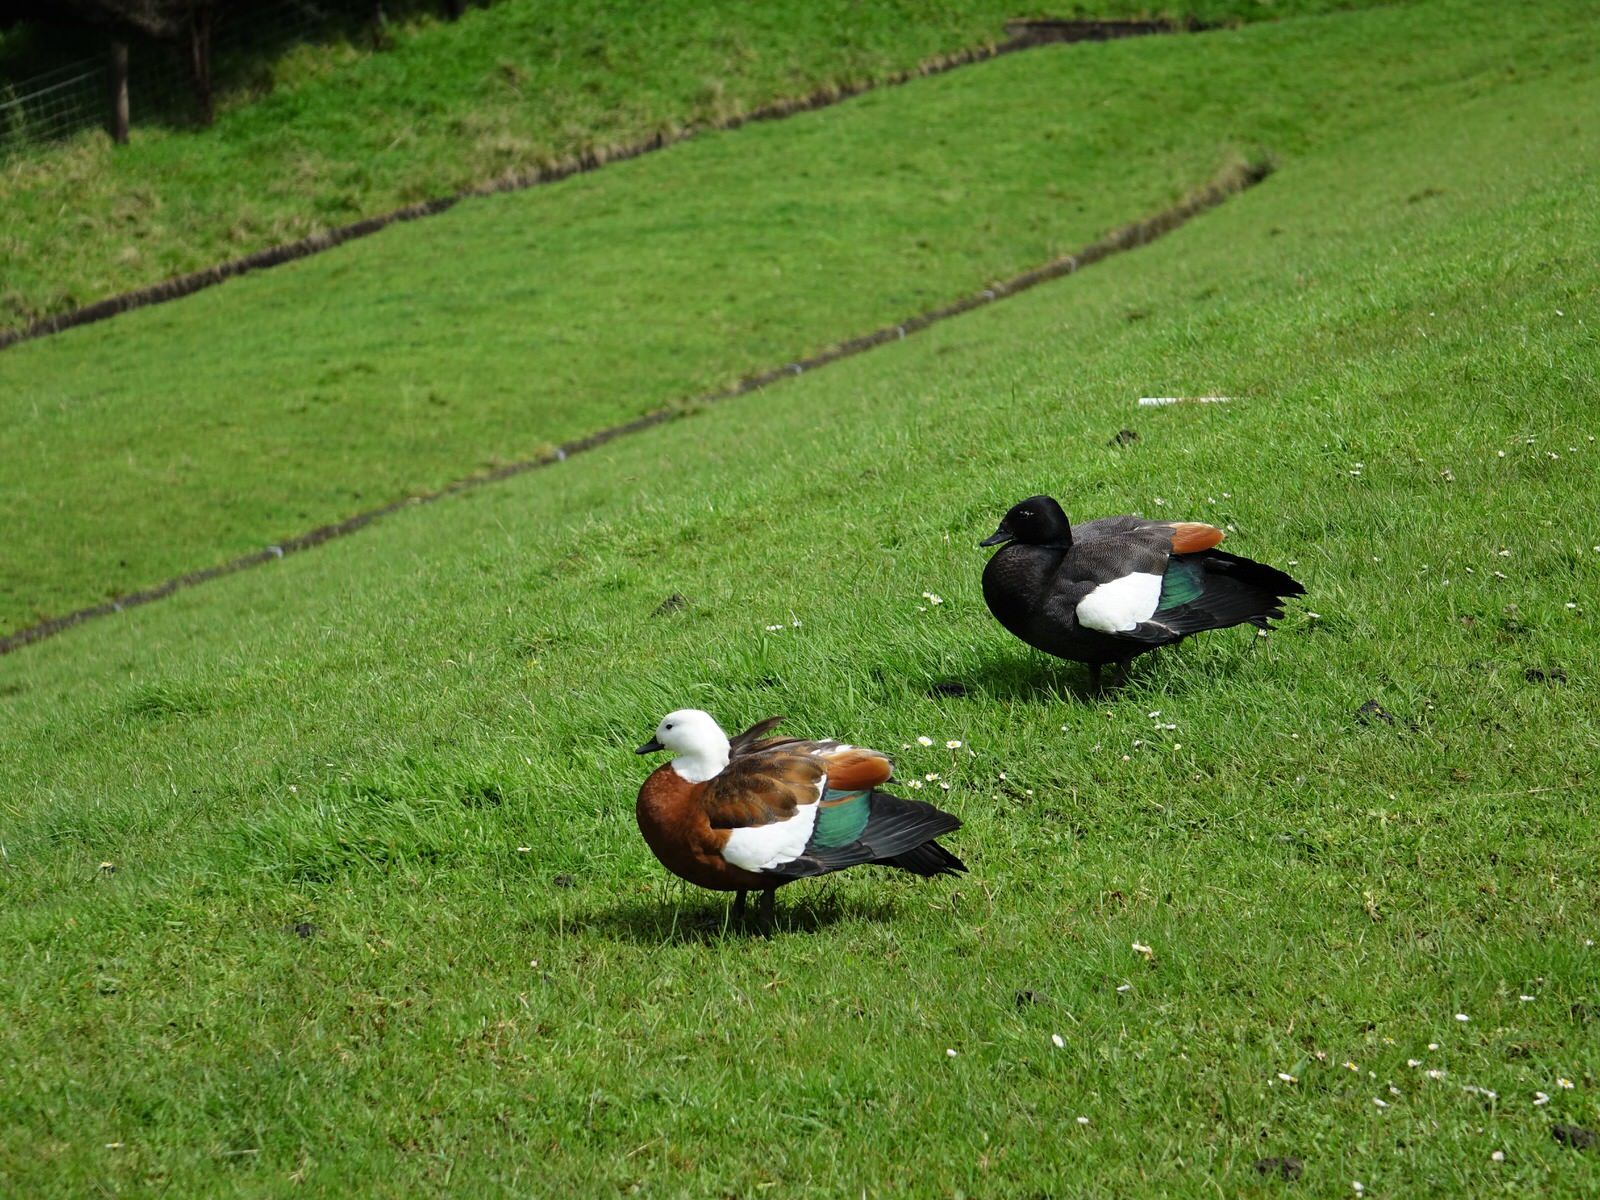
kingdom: Animalia
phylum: Chordata
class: Aves
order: Anseriformes
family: Anatidae
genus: Tadorna
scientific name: Tadorna variegata
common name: Paradise shelduck
